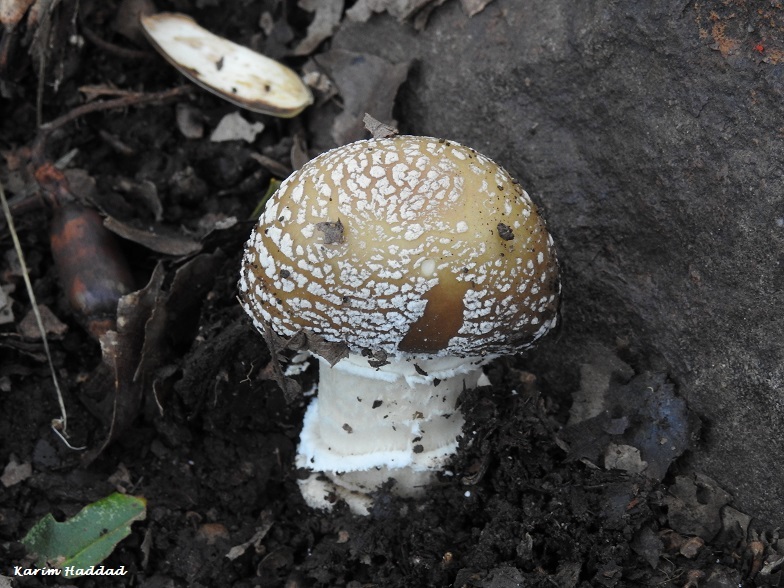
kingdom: Fungi
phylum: Basidiomycota
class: Agaricomycetes
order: Agaricales
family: Amanitaceae
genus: Amanita
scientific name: Amanita pantherina
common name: Panthercap
